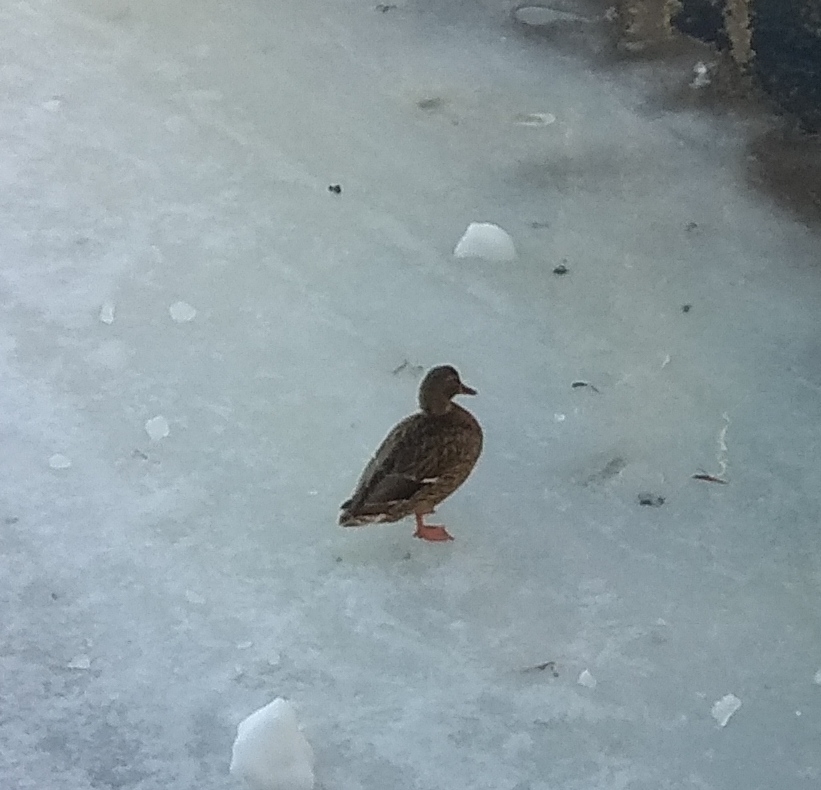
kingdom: Animalia
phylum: Chordata
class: Aves
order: Anseriformes
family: Anatidae
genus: Anas
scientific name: Anas platyrhynchos
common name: Mallard
